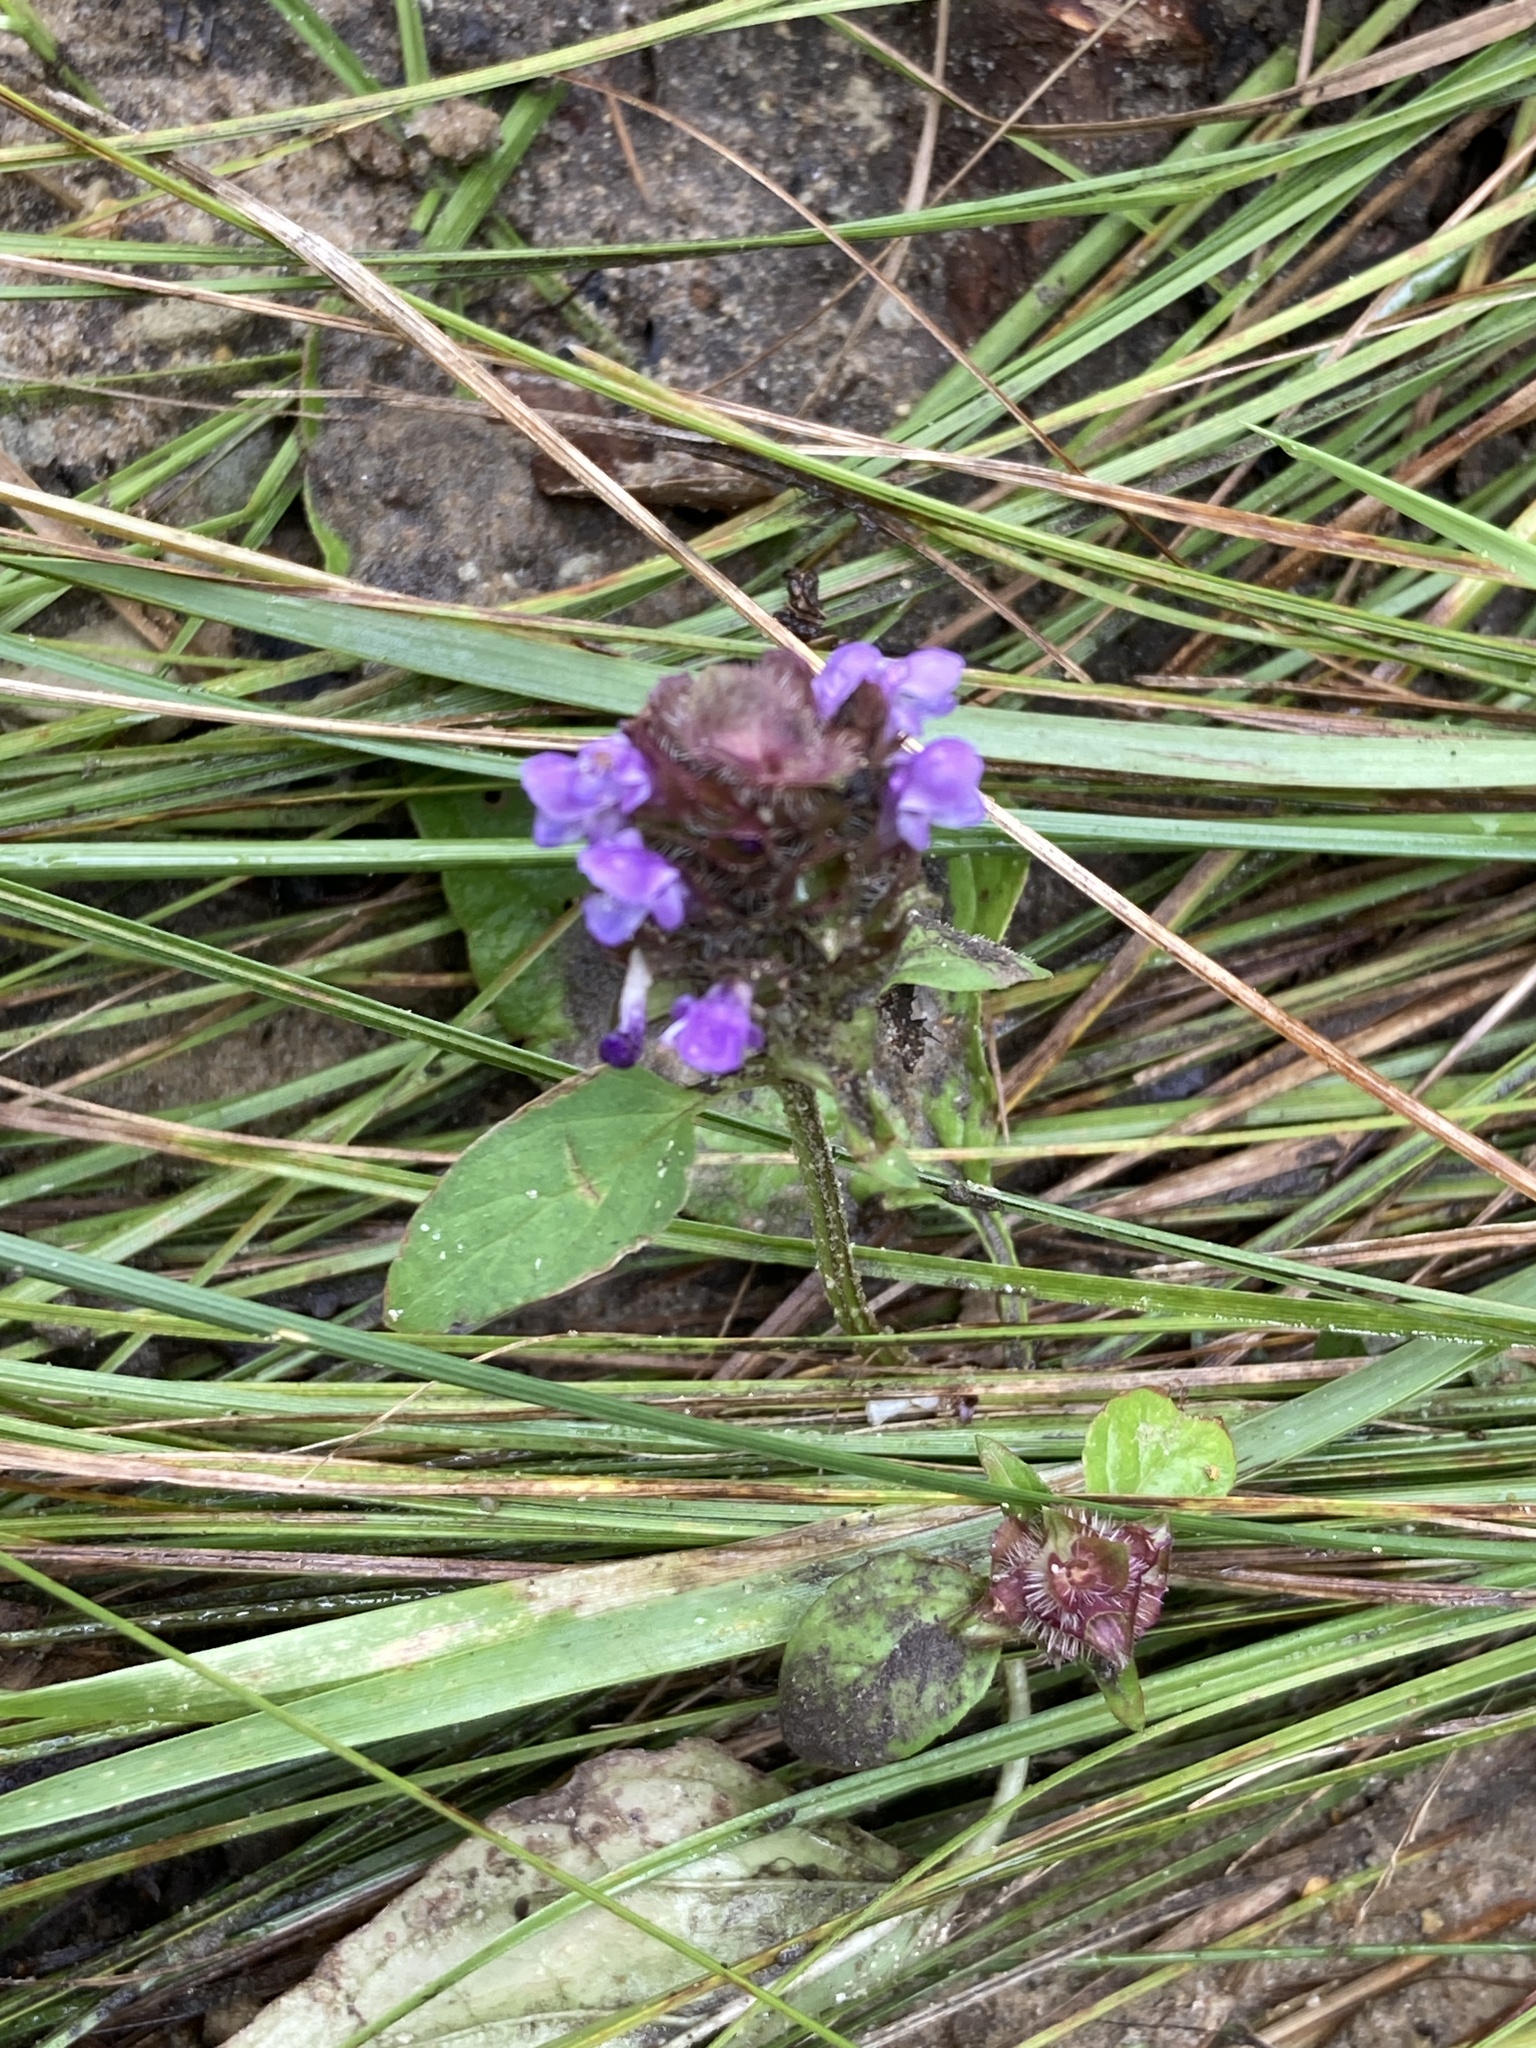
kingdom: Plantae
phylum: Tracheophyta
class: Magnoliopsida
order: Lamiales
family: Lamiaceae
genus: Prunella
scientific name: Prunella vulgaris
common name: Heal-all
